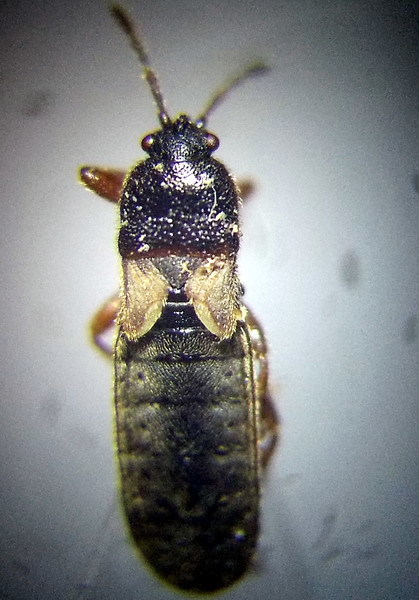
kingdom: Animalia
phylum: Arthropoda
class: Insecta
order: Hemiptera
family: Blissidae
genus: Dimorphopterus
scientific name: Dimorphopterus blissoides
